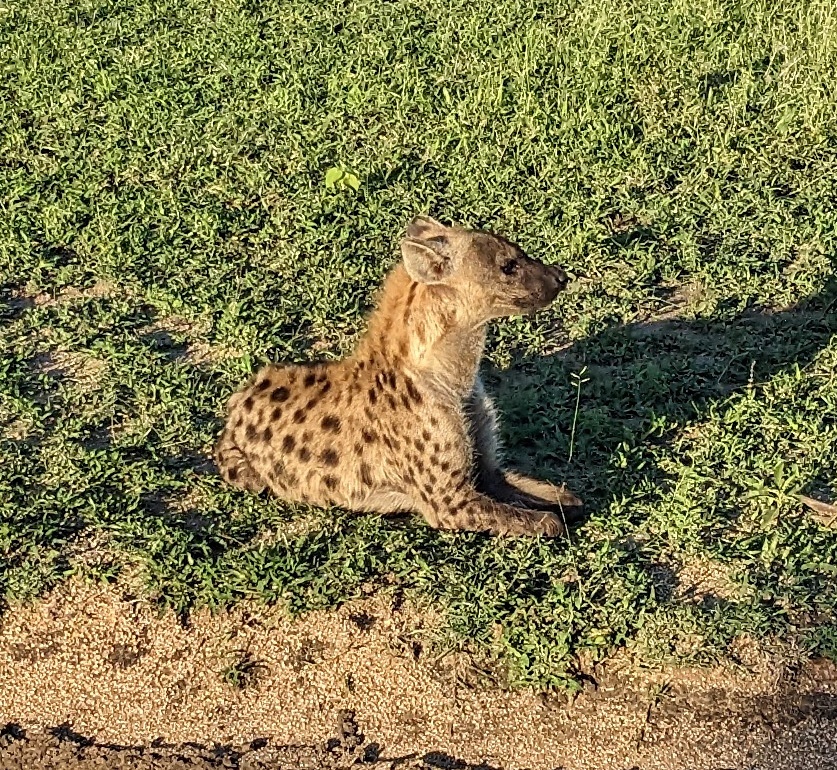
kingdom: Animalia
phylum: Chordata
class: Mammalia
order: Carnivora
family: Hyaenidae
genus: Crocuta
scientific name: Crocuta crocuta
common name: Spotted hyaena
